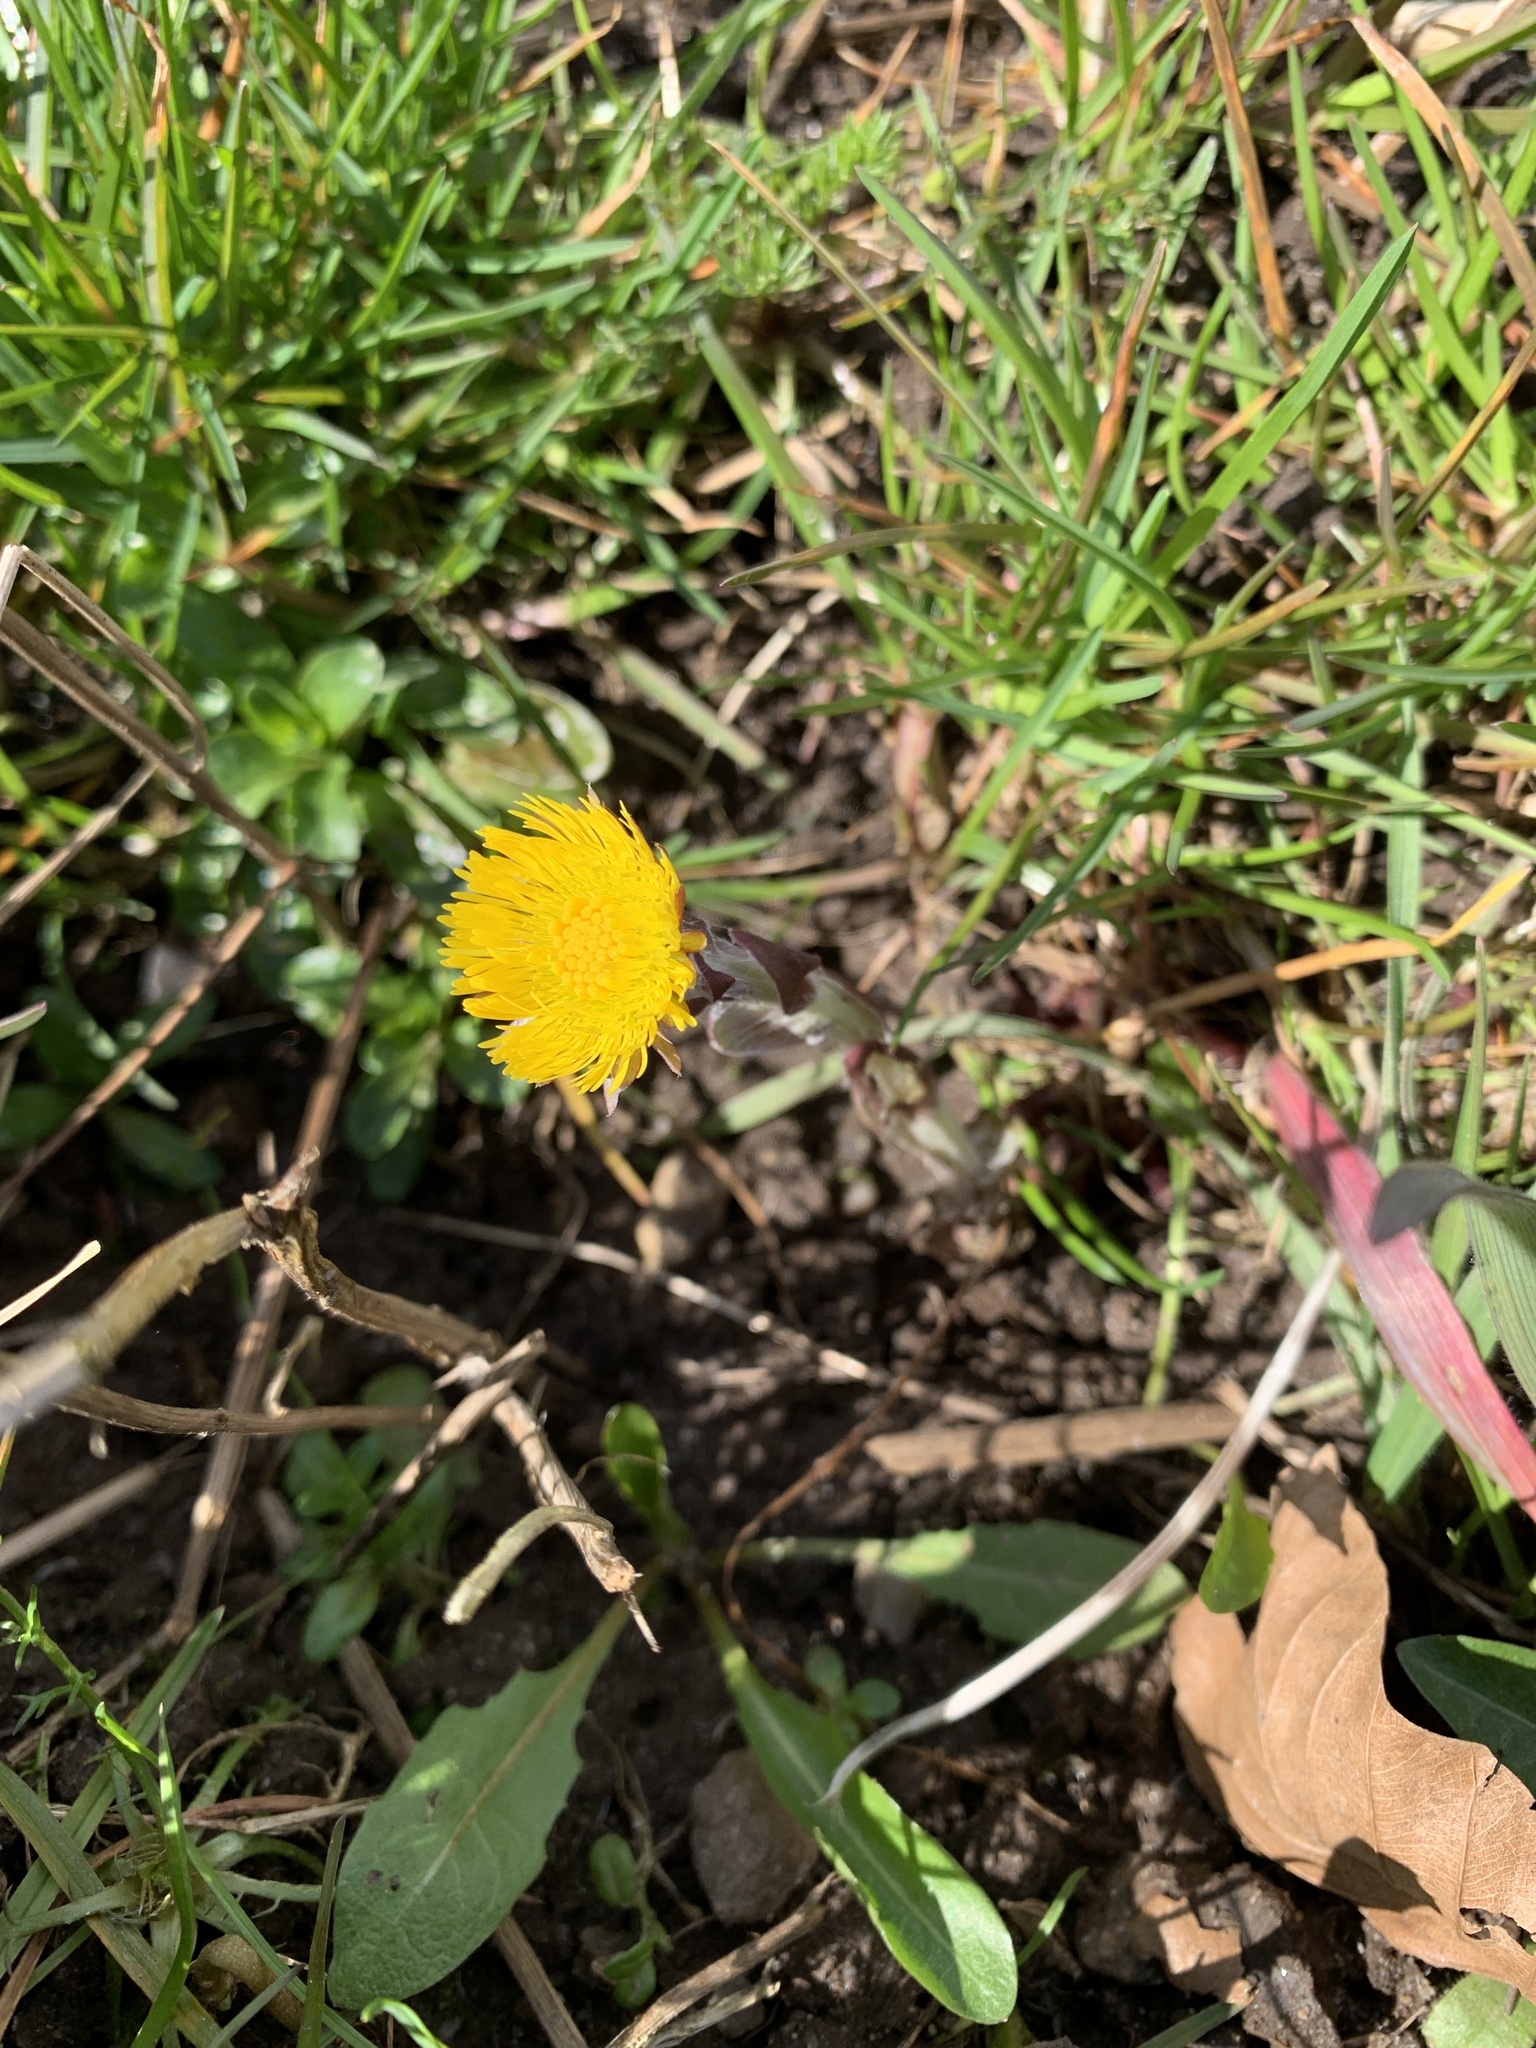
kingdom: Plantae
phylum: Tracheophyta
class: Magnoliopsida
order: Asterales
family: Asteraceae
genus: Tussilago
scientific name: Tussilago farfara
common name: Coltsfoot
